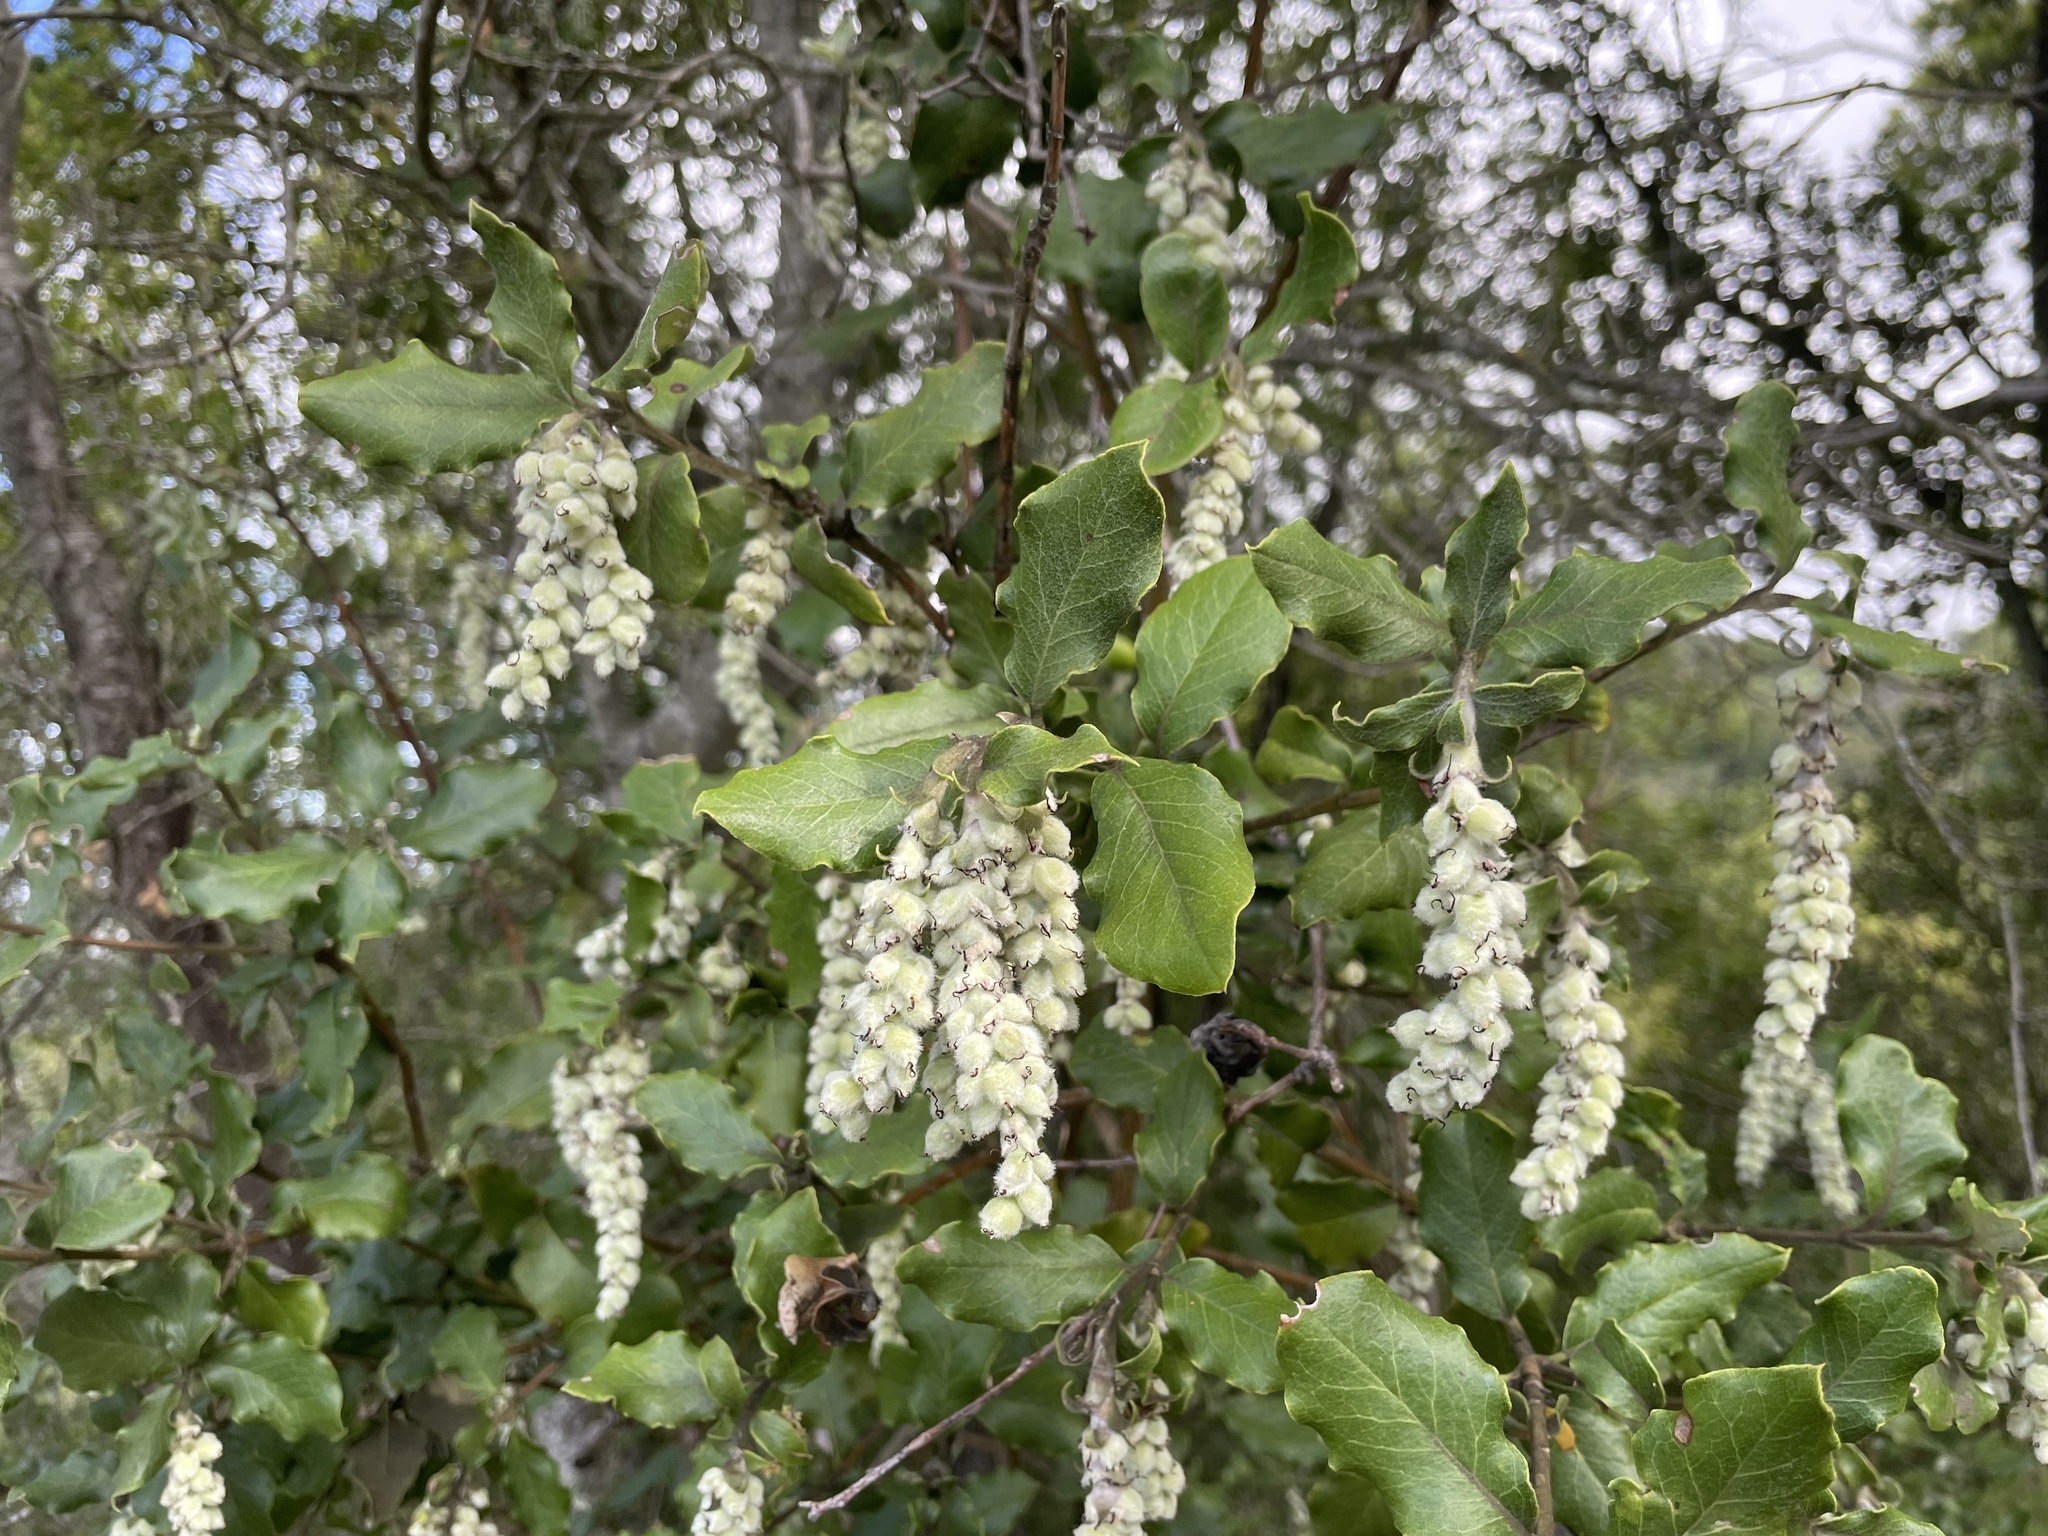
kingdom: Plantae
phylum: Tracheophyta
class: Magnoliopsida
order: Garryales
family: Garryaceae
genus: Garrya
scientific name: Garrya elliptica
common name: Silk-tassel
